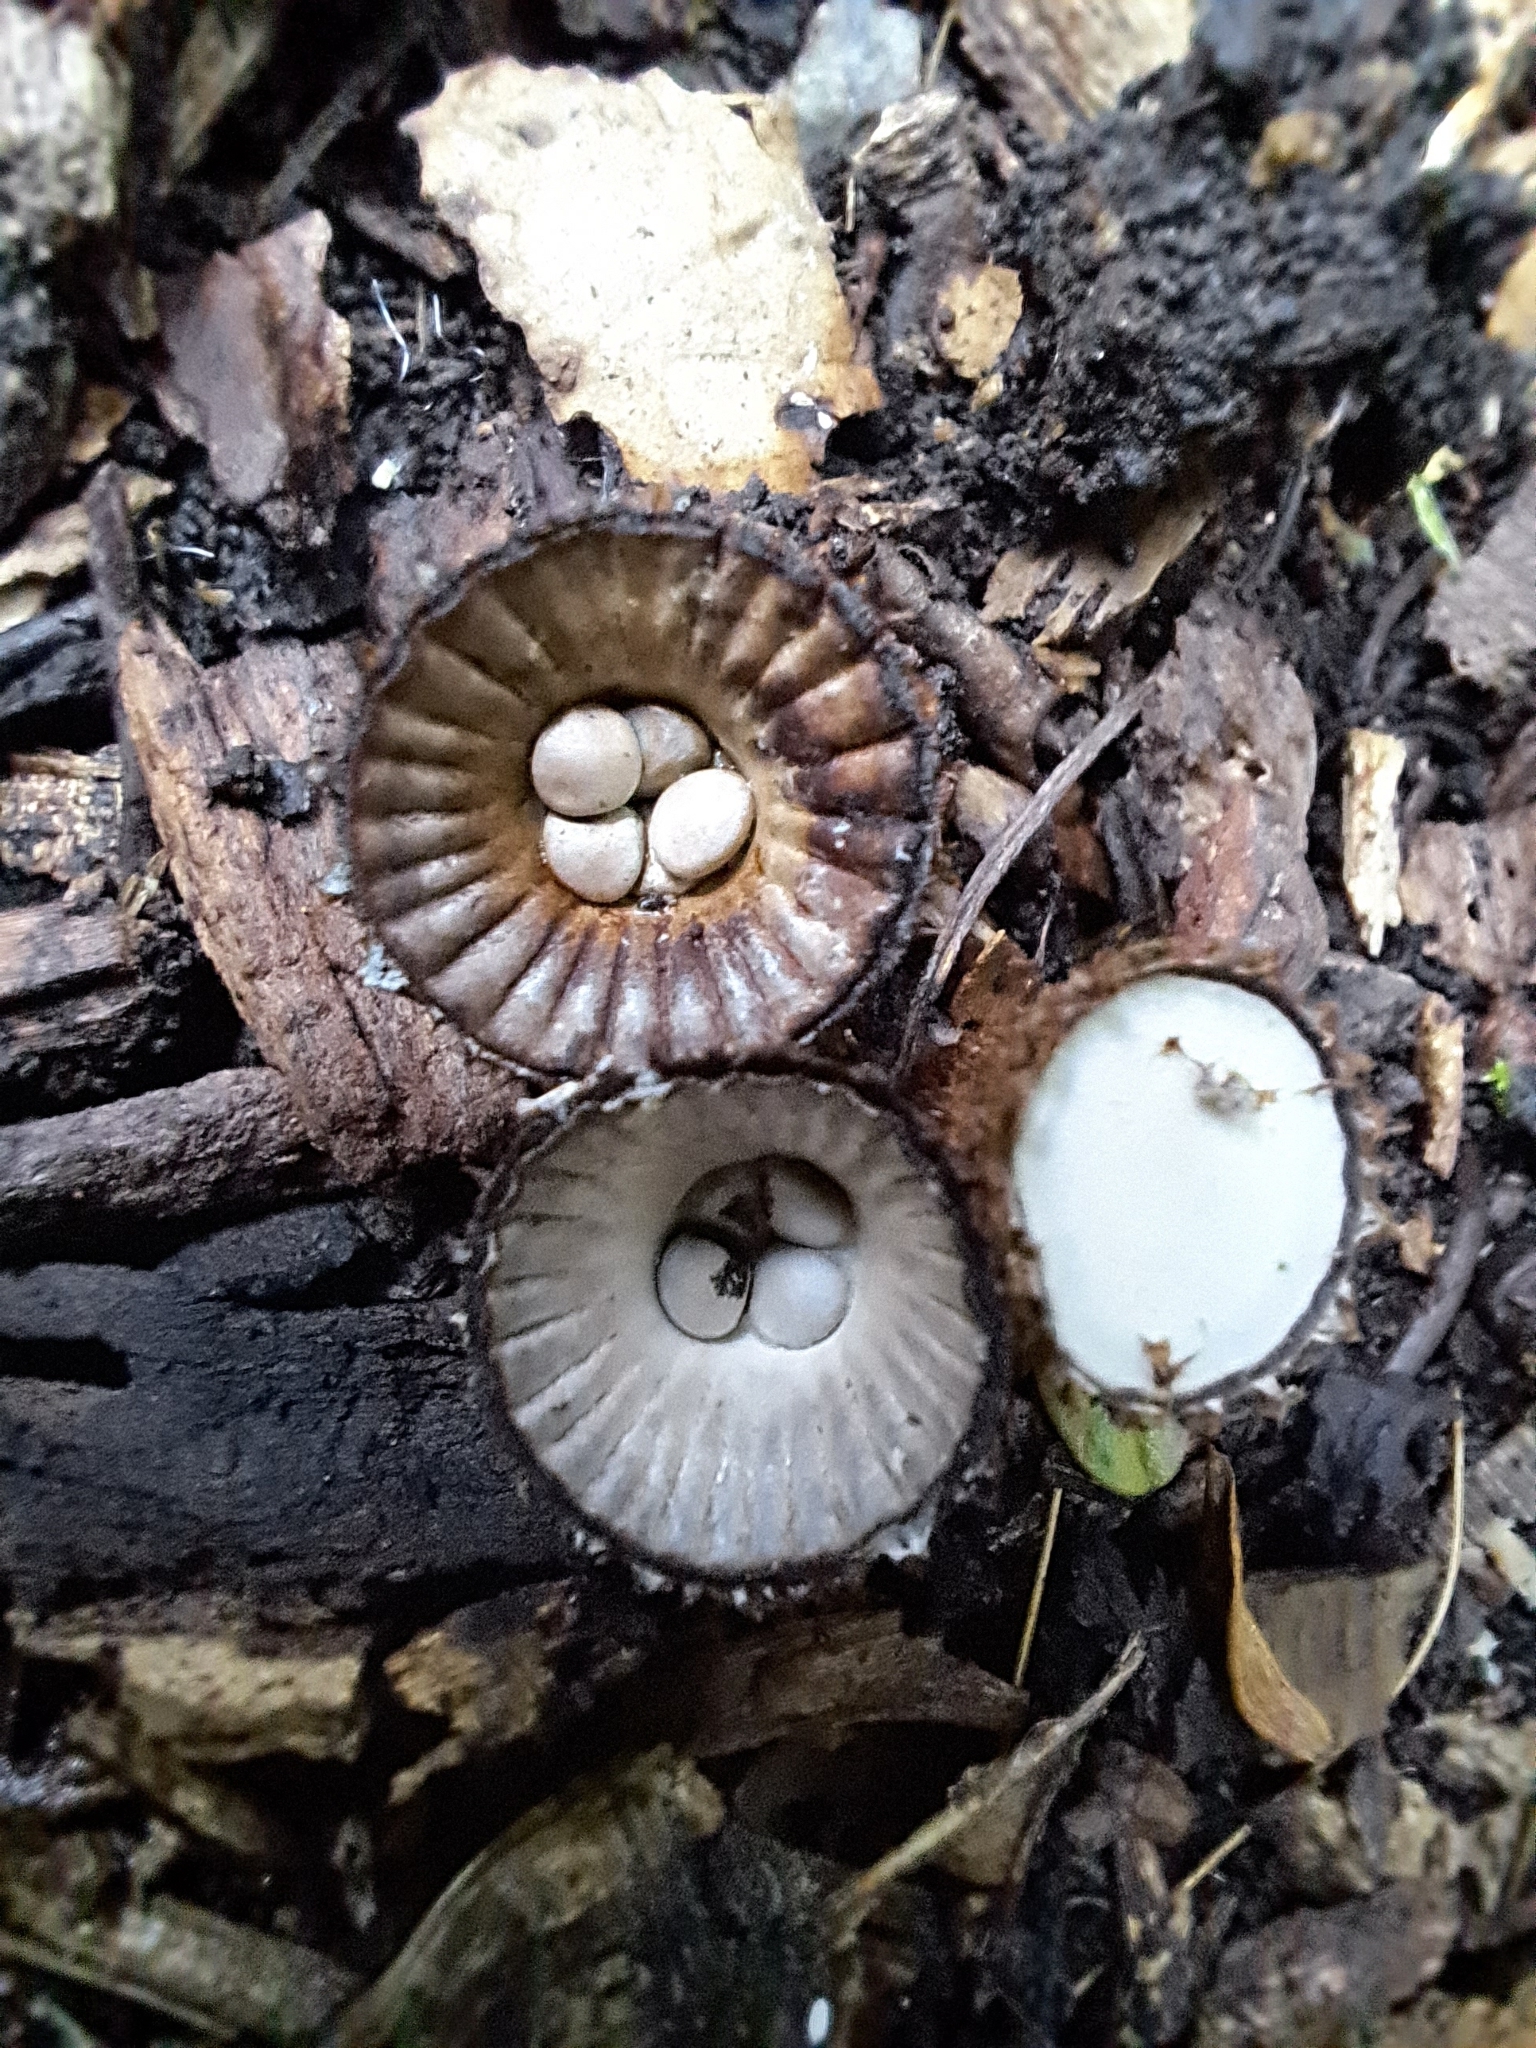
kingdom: Fungi
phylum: Basidiomycota
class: Agaricomycetes
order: Agaricales
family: Agaricaceae
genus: Cyathus
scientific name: Cyathus striatus
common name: Fluted bird's nest
